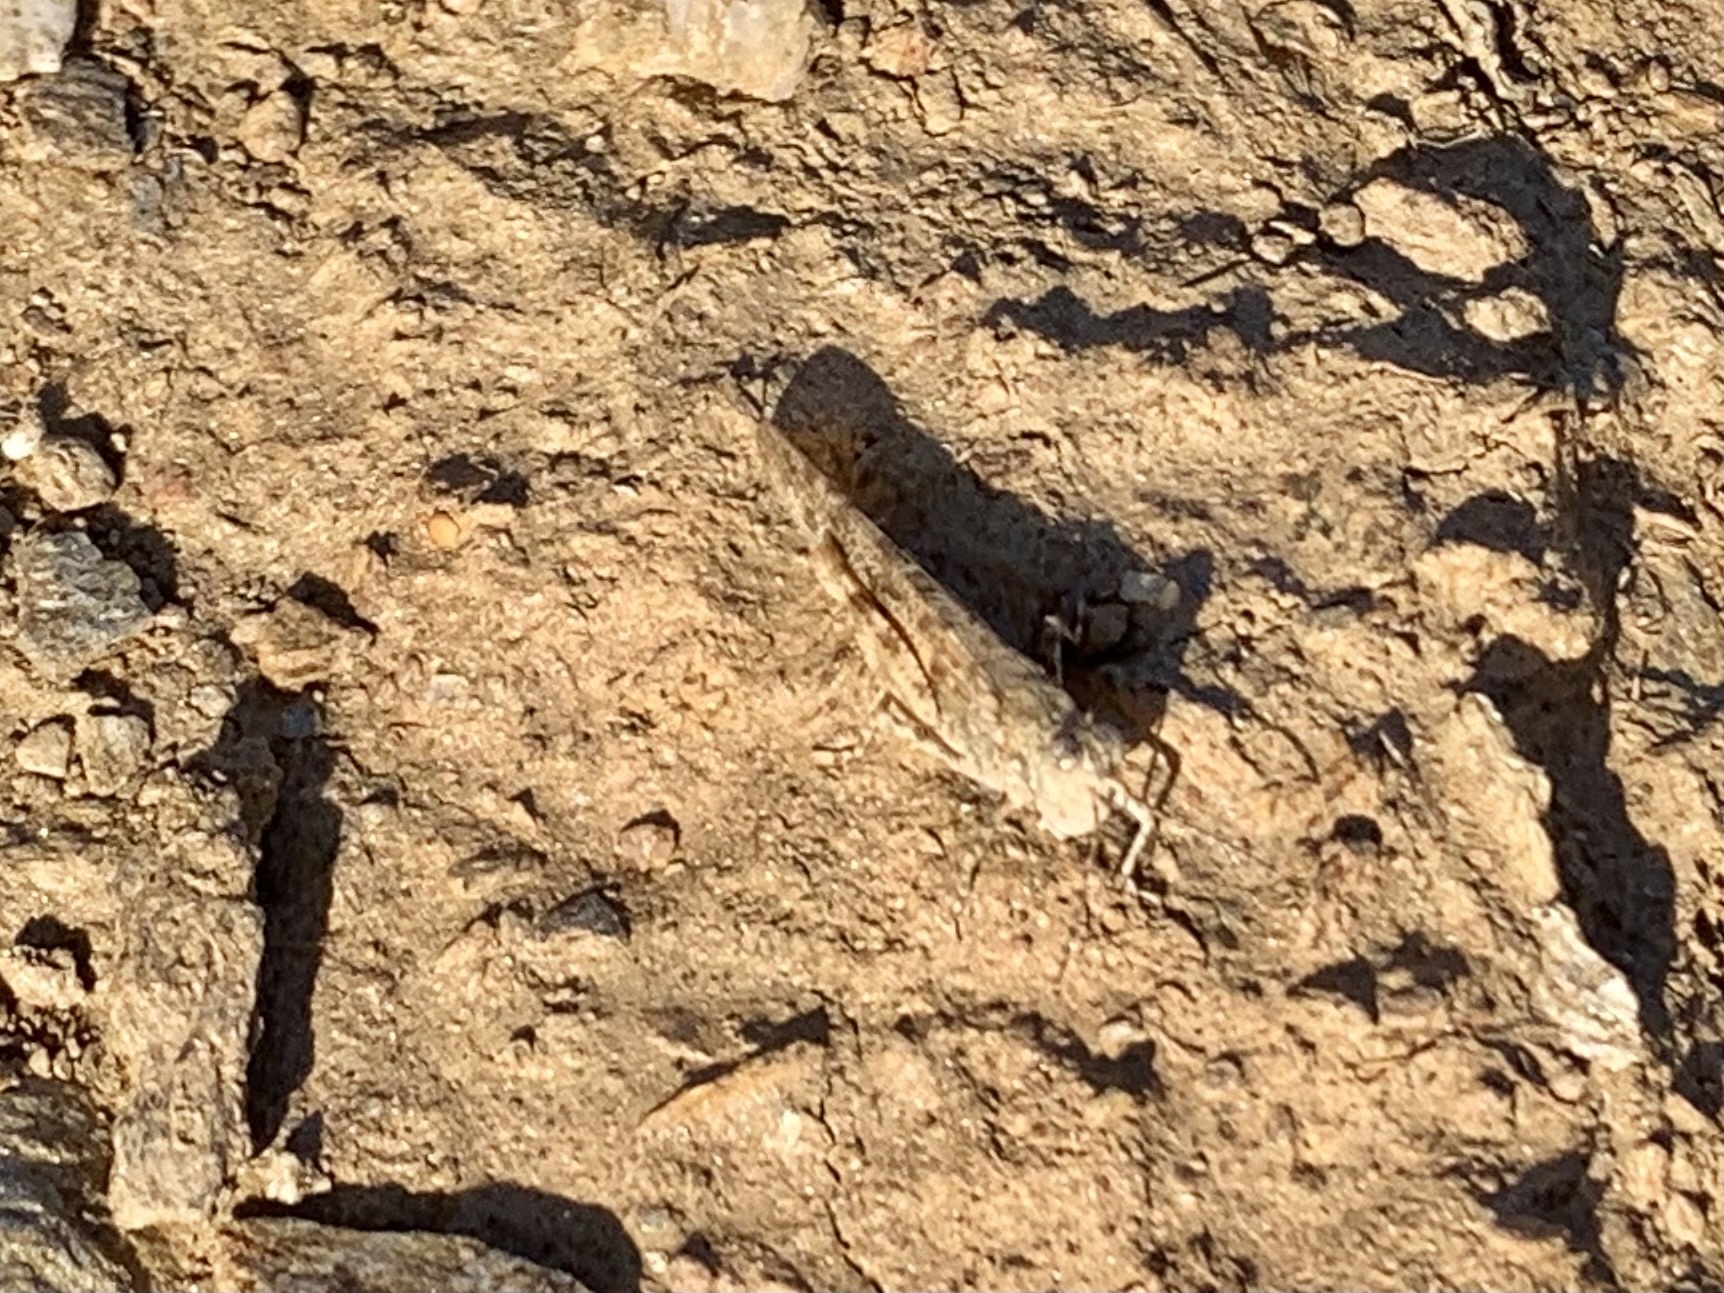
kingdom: Animalia
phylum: Arthropoda
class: Insecta
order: Orthoptera
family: Acrididae
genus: Sphingonotus
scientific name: Sphingonotus rubescens
